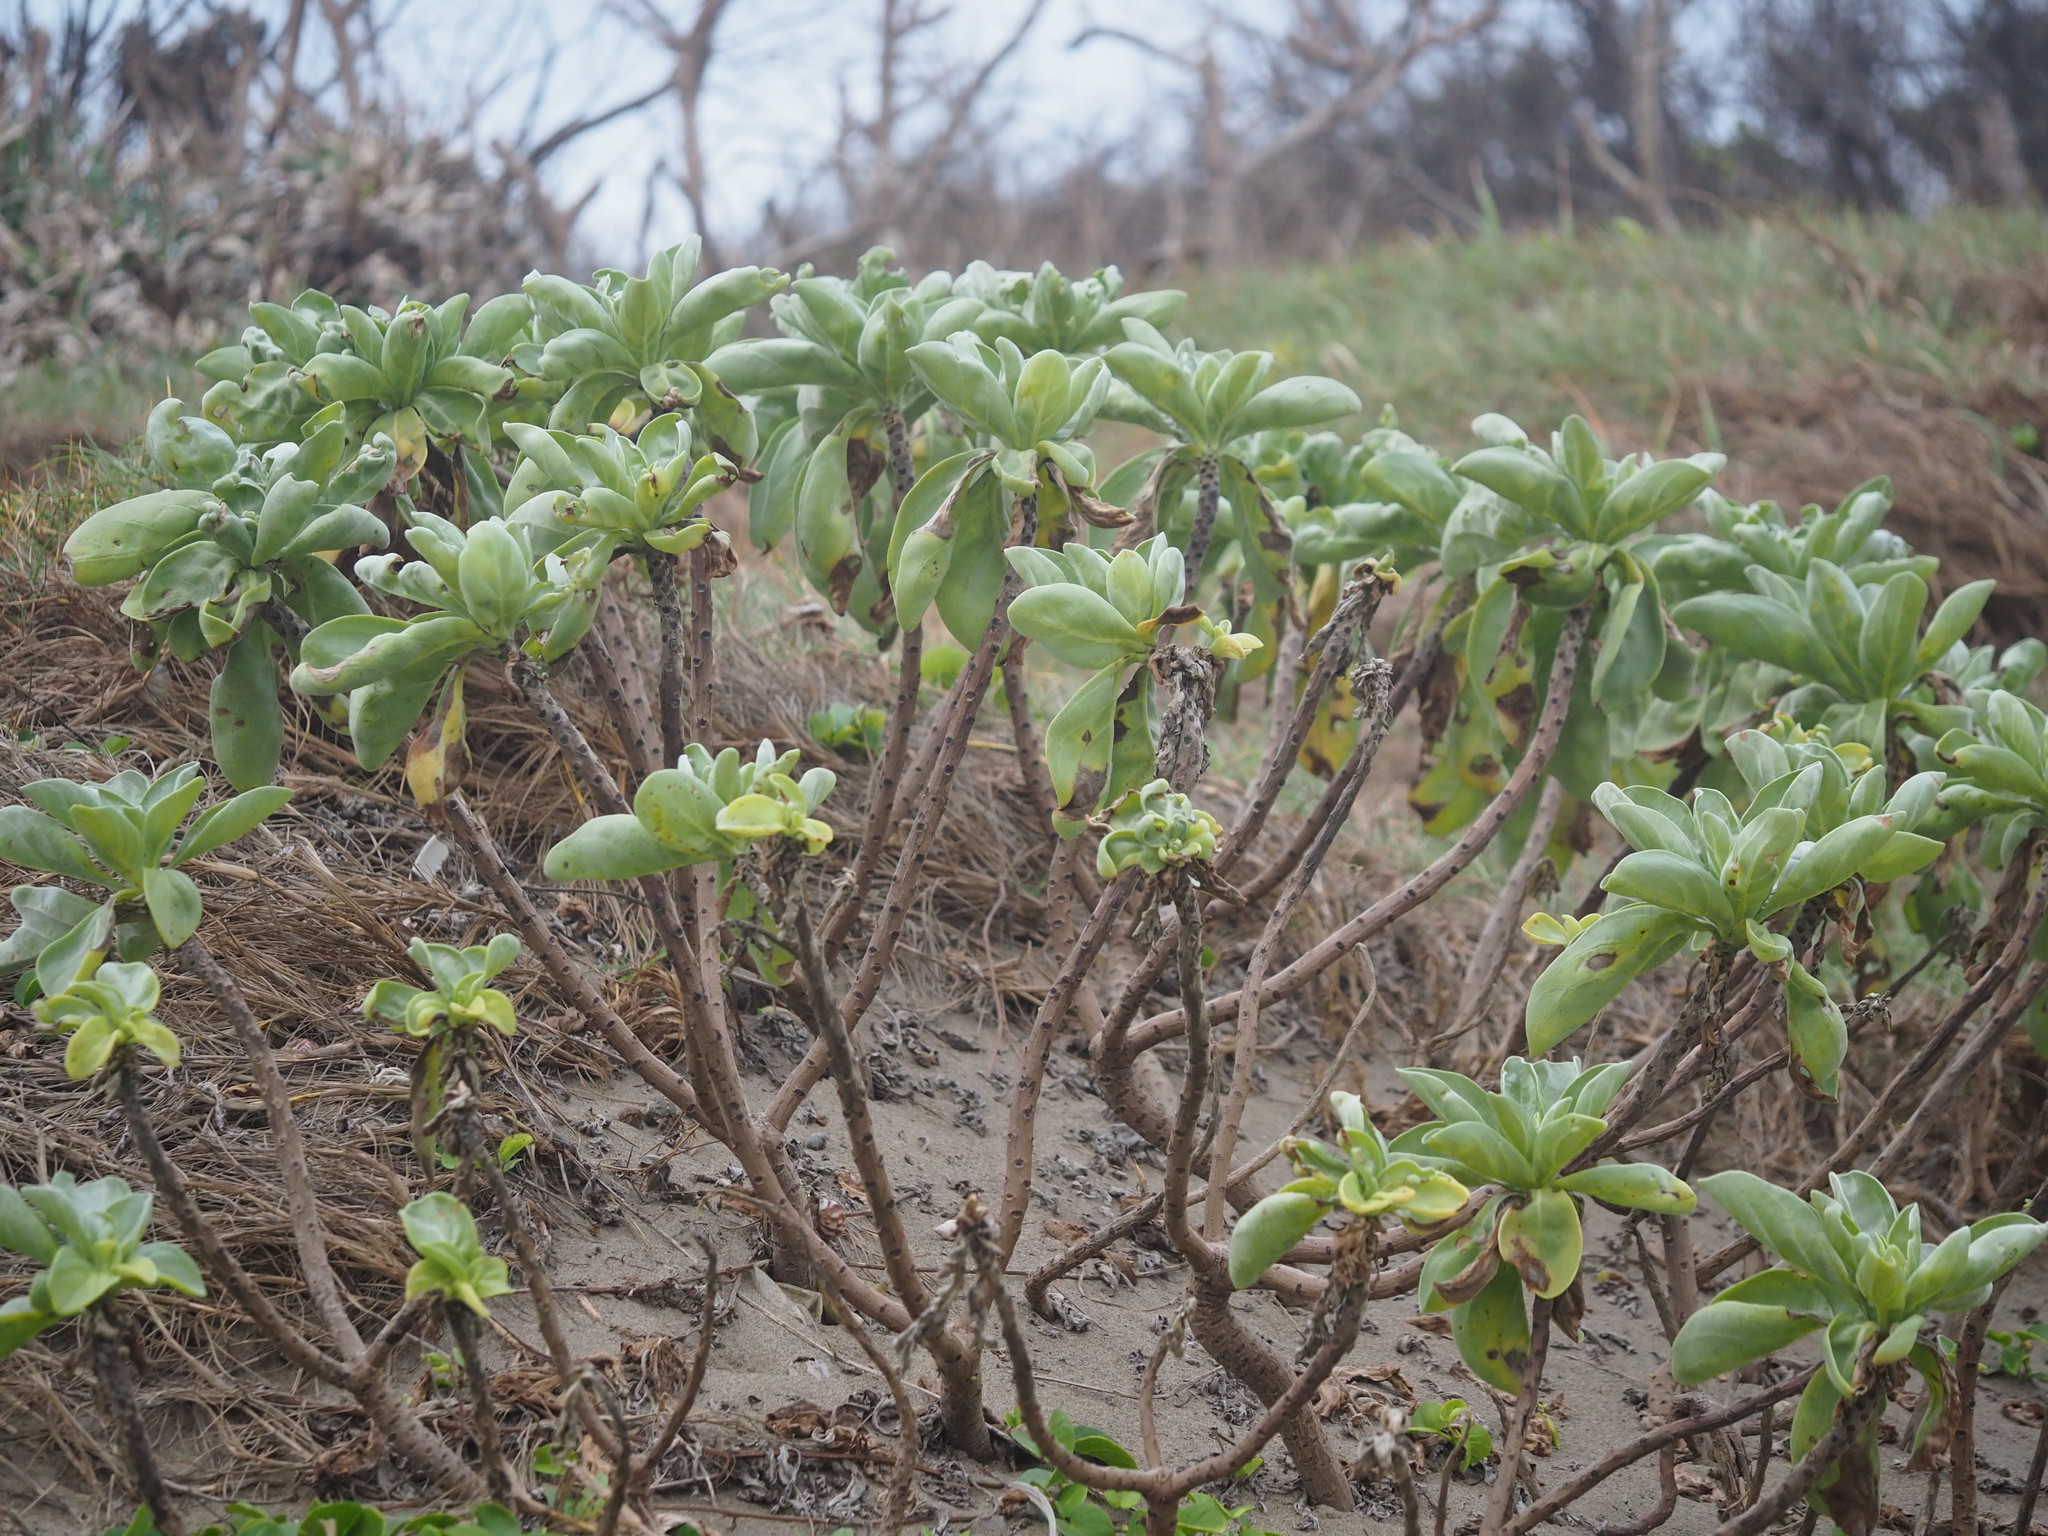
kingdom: Plantae
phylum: Tracheophyta
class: Magnoliopsida
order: Boraginales
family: Heliotropiaceae
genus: Heliotropium
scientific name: Heliotropium velutinum
